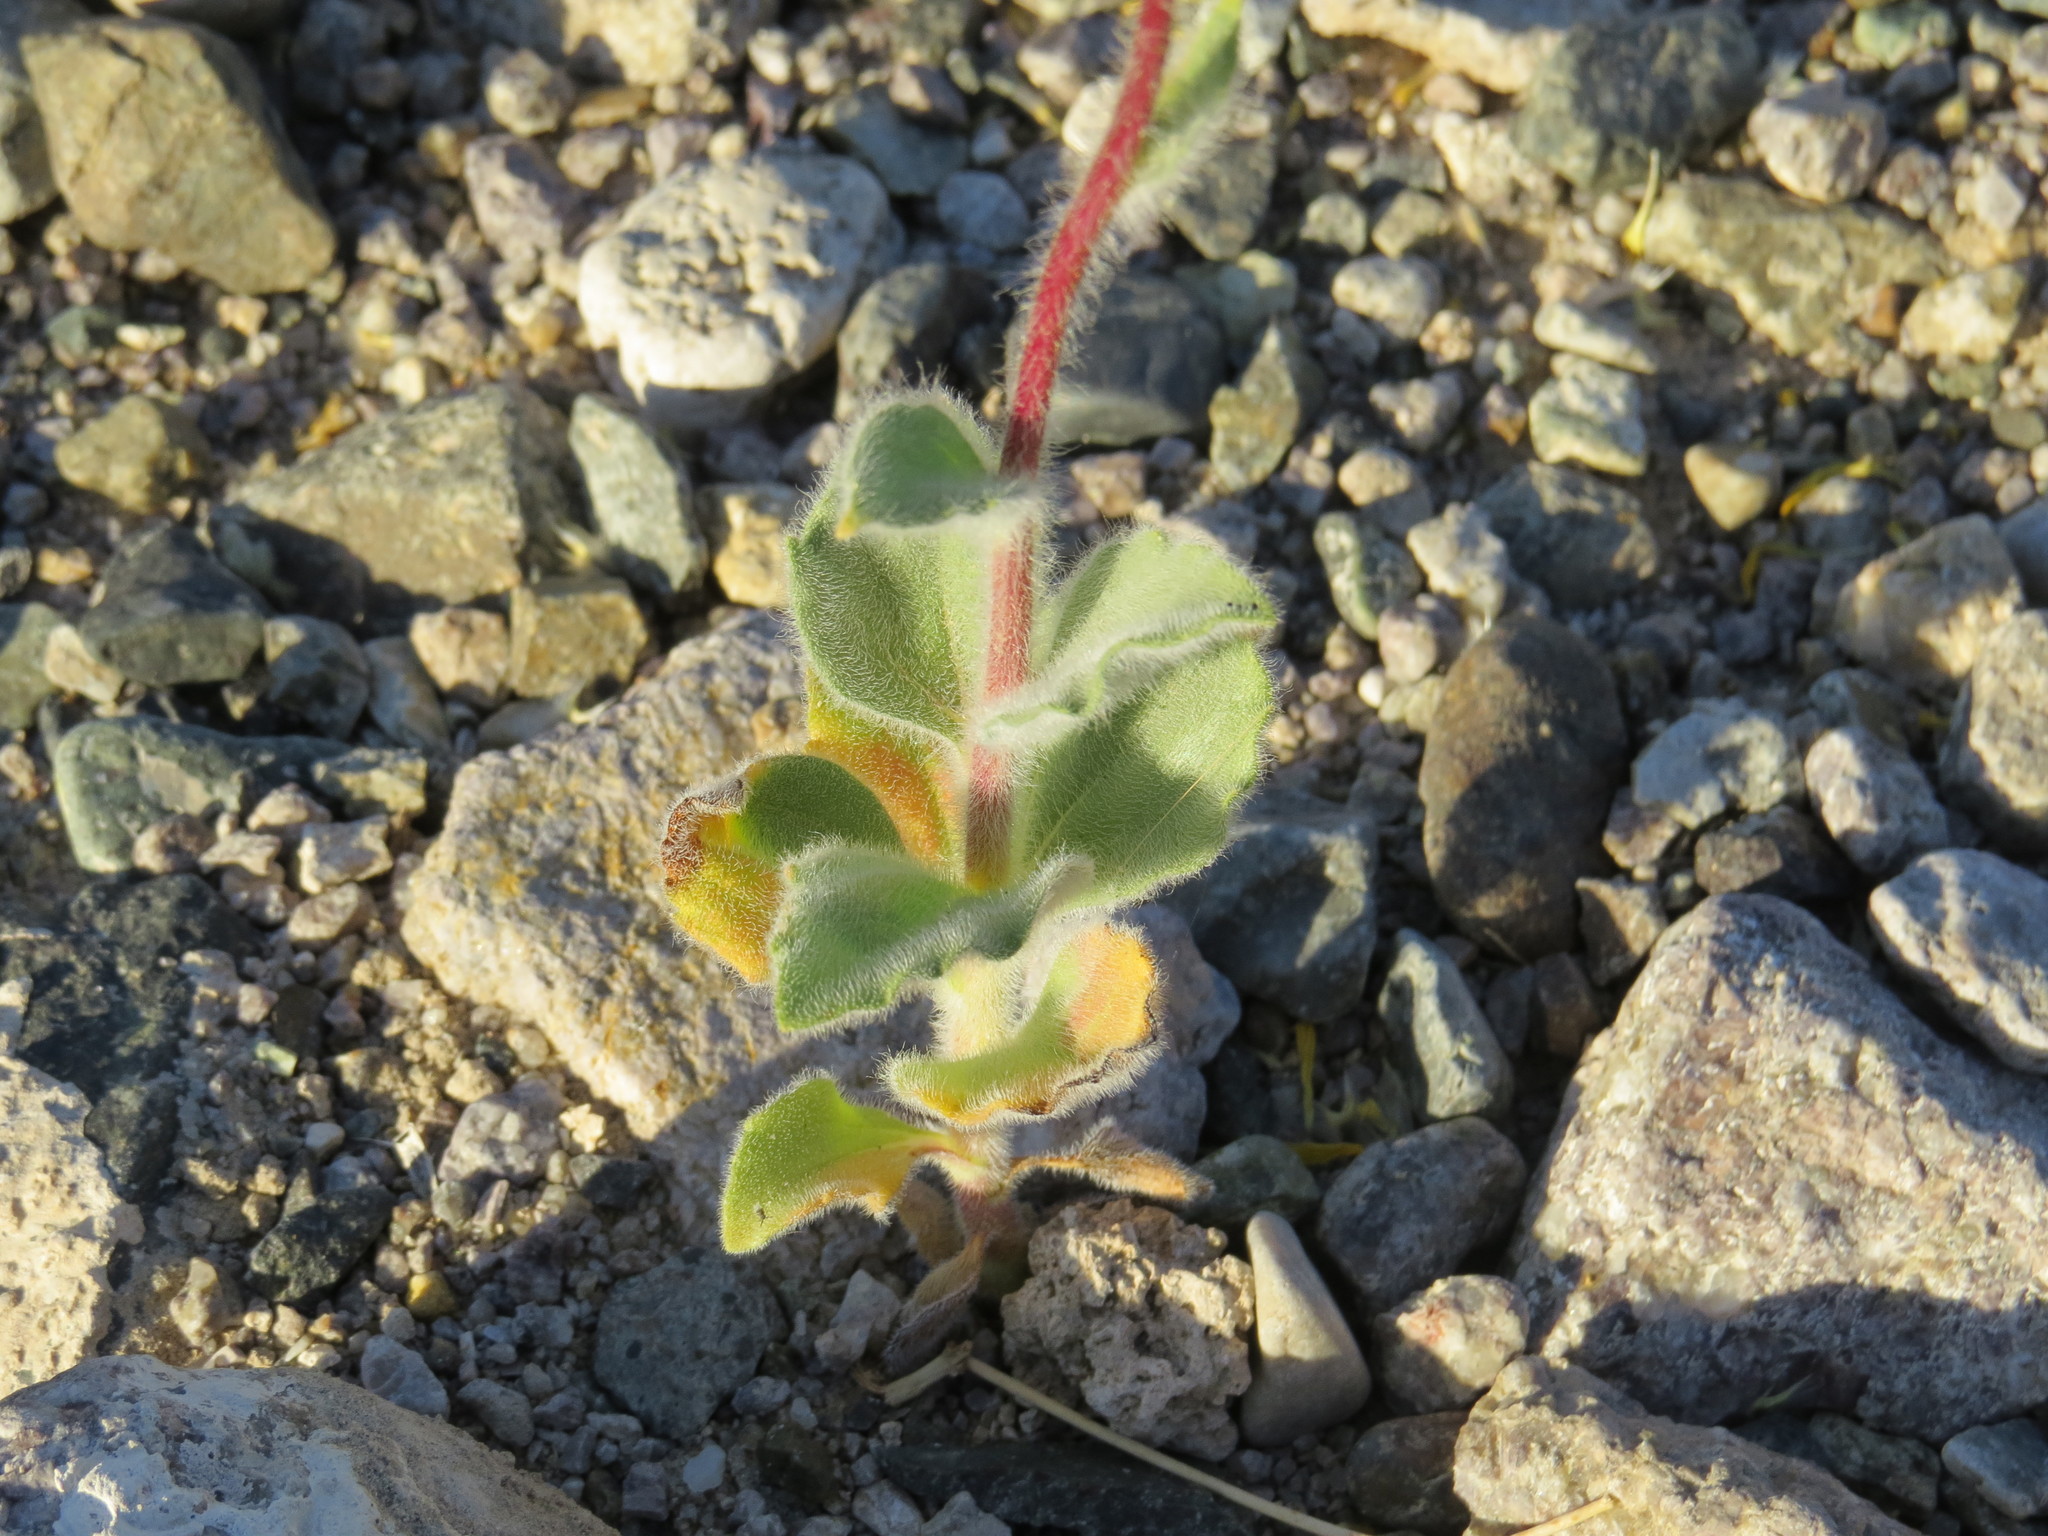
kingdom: Plantae
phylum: Tracheophyta
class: Magnoliopsida
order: Asterales
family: Asteraceae
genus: Geraea
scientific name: Geraea canescens
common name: Desert-gold
